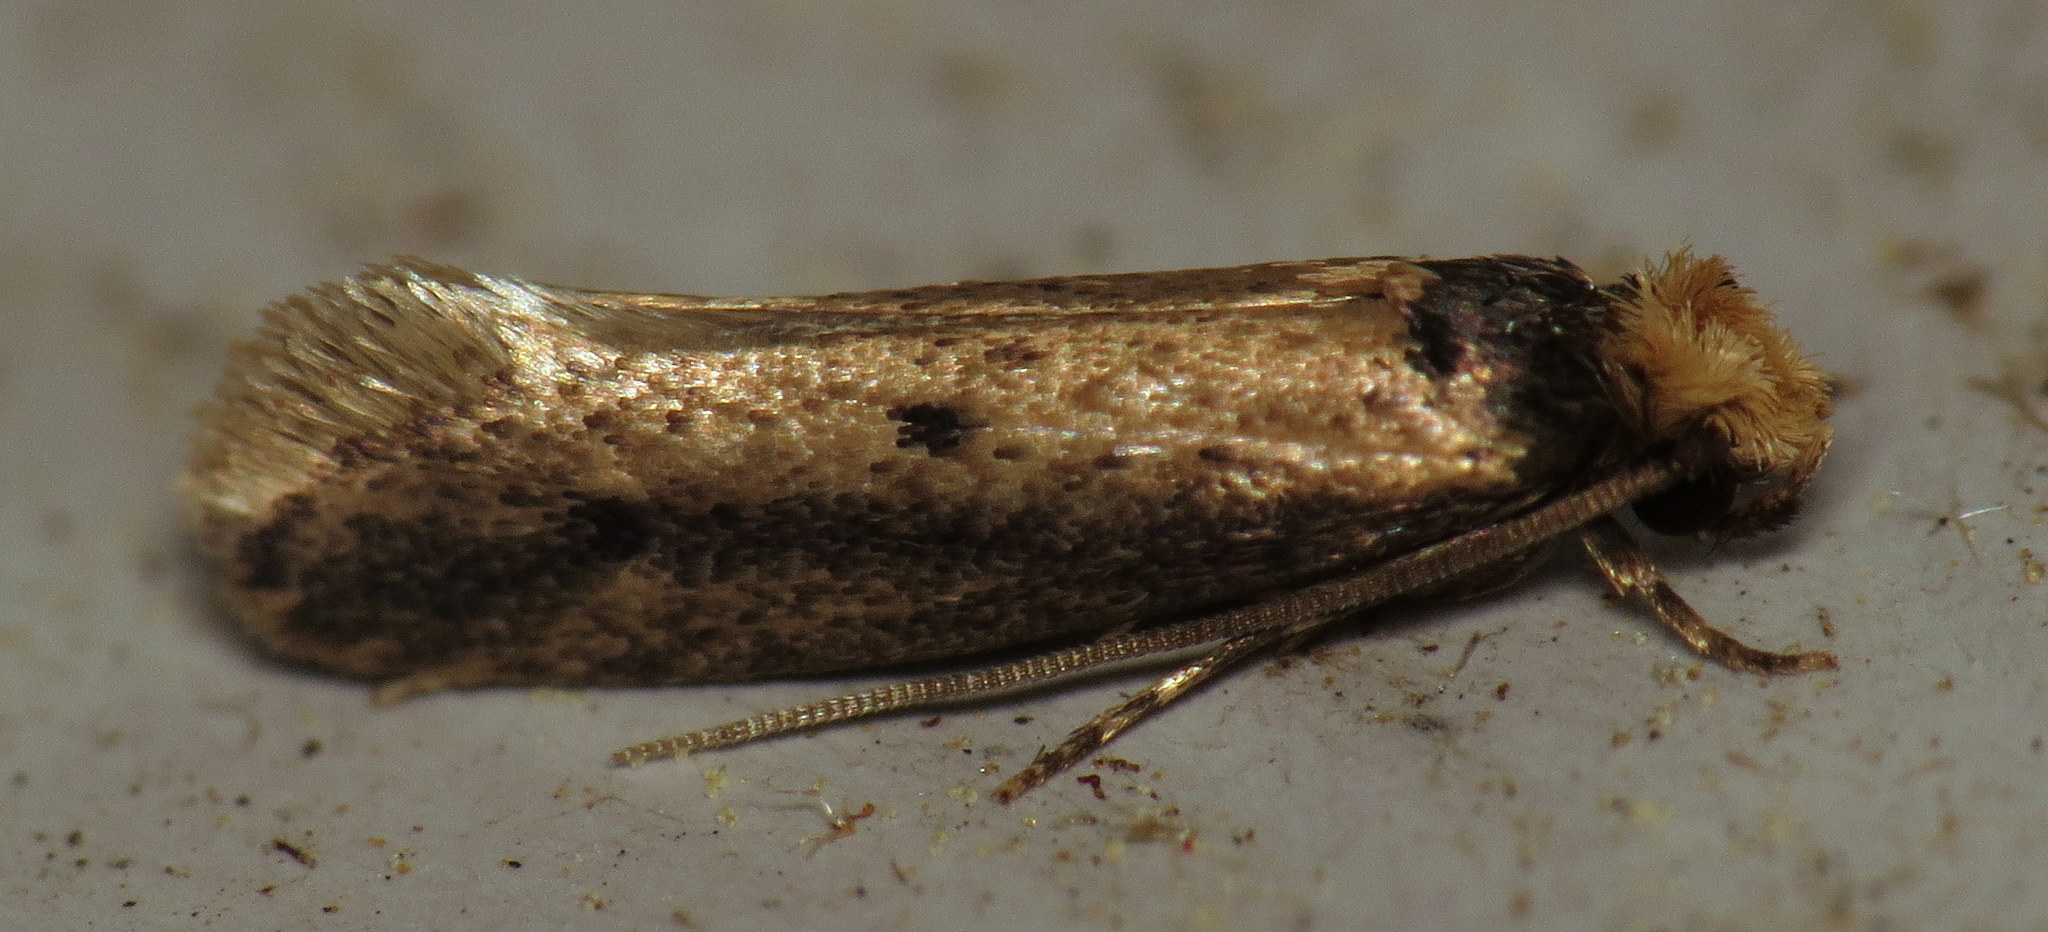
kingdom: Animalia
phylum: Arthropoda
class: Insecta
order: Lepidoptera
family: Tineidae
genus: Tinea
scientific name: Tinea apicimaculella
